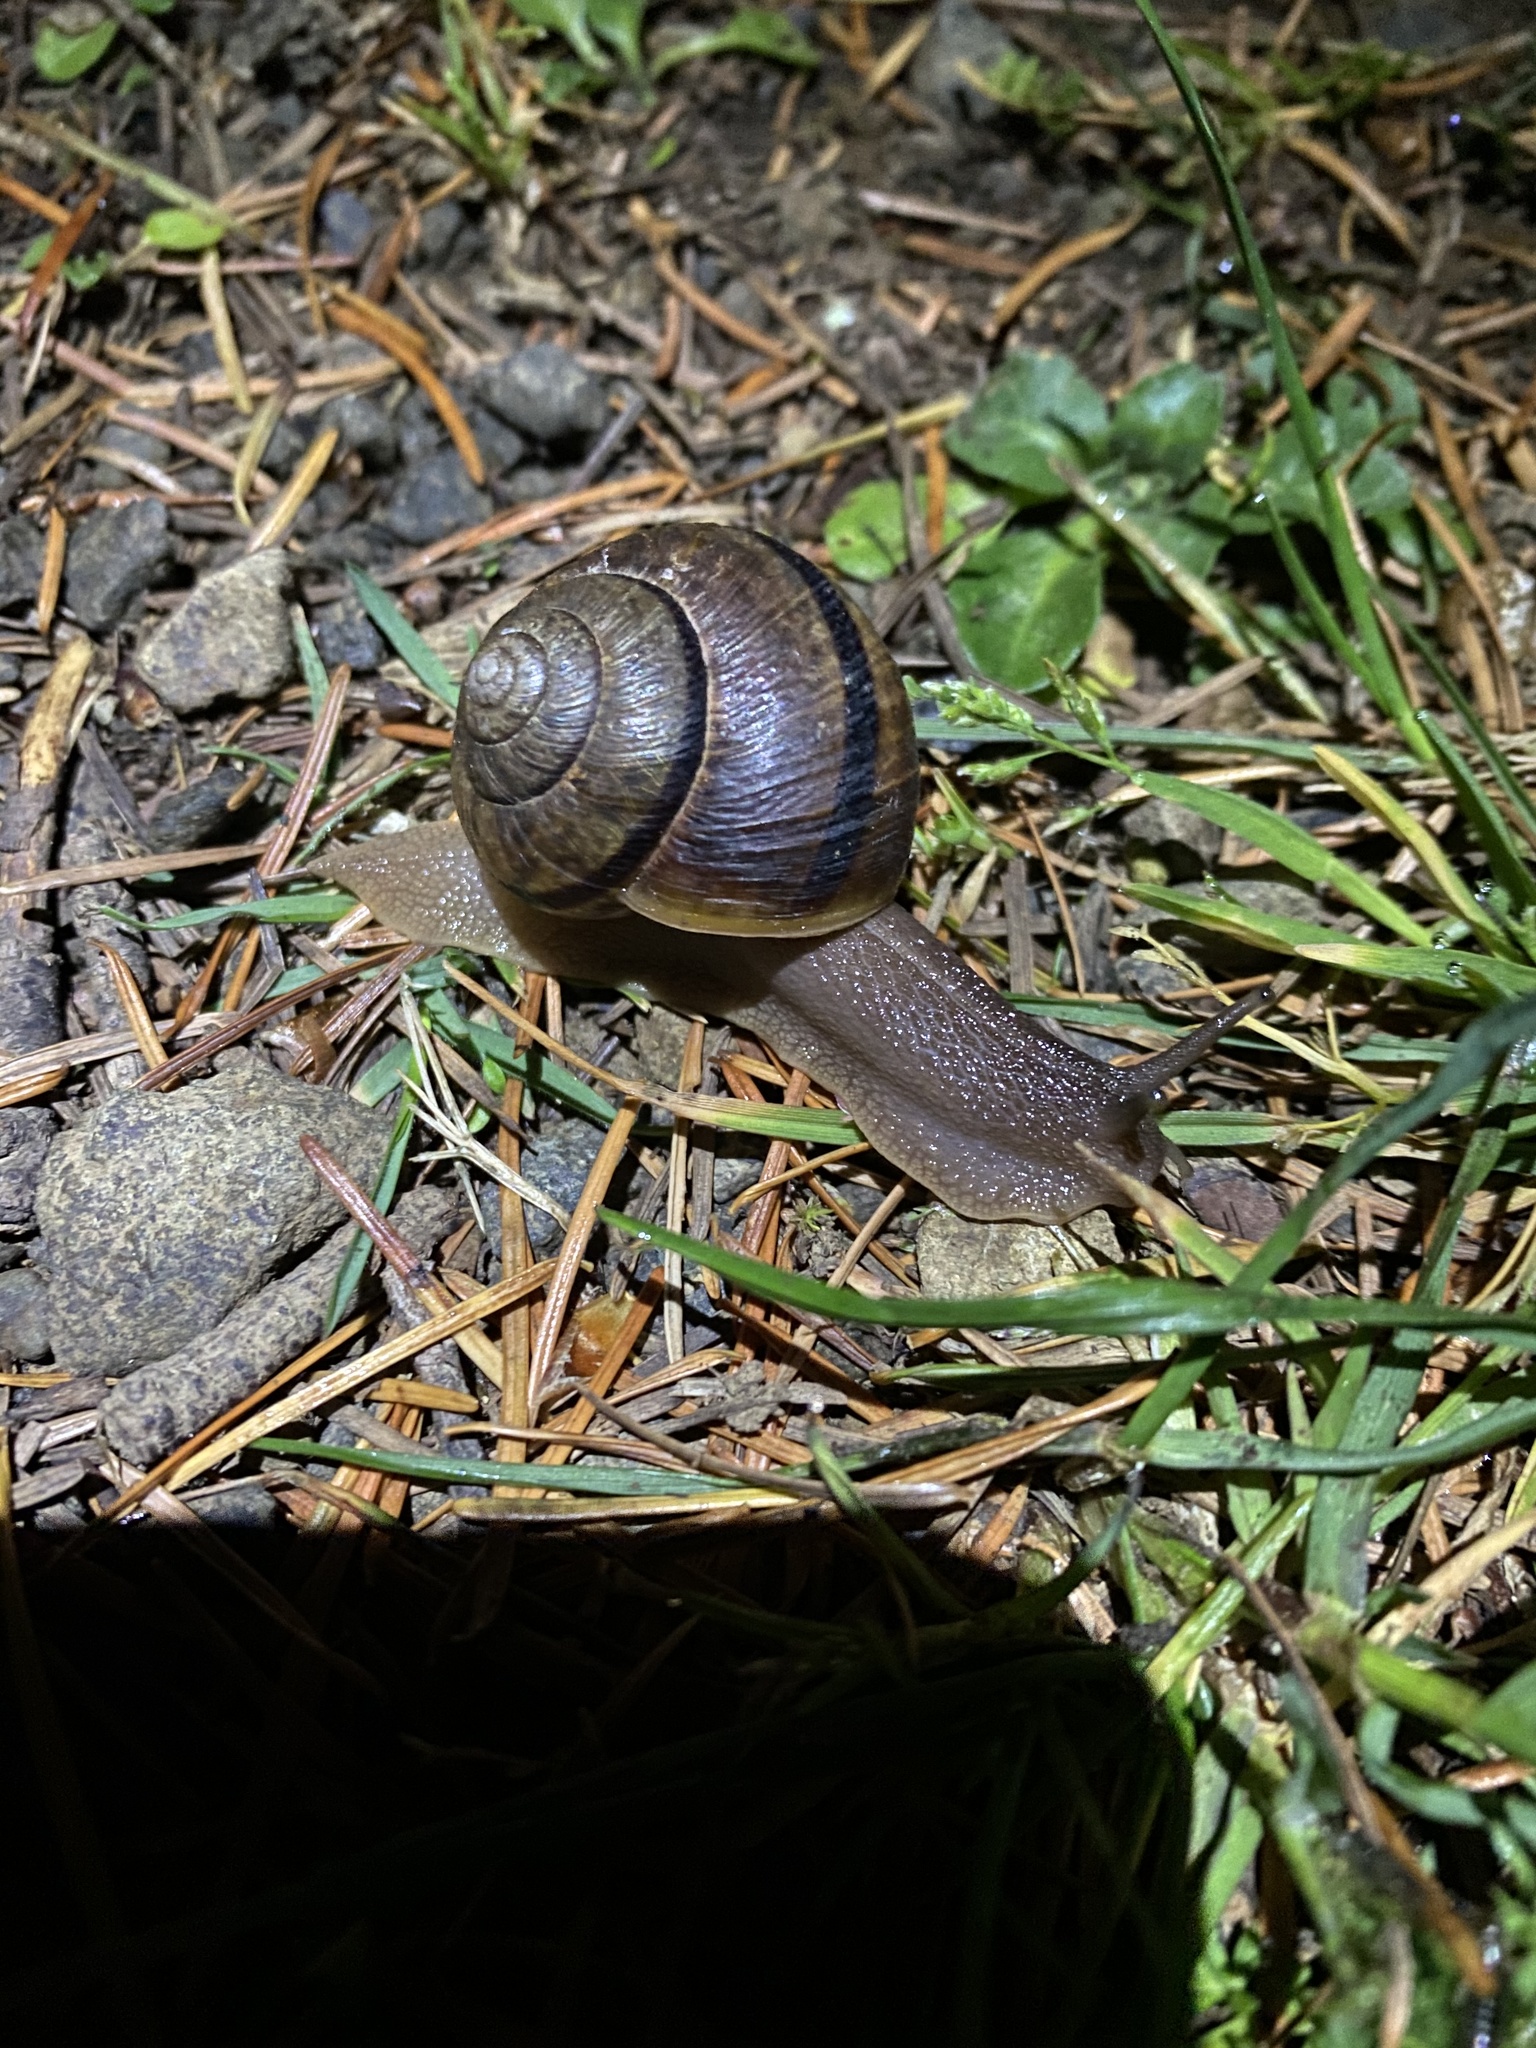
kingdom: Animalia
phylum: Mollusca
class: Gastropoda
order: Stylommatophora
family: Xanthonychidae
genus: Helminthoglypta
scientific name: Helminthoglypta expansilabris
